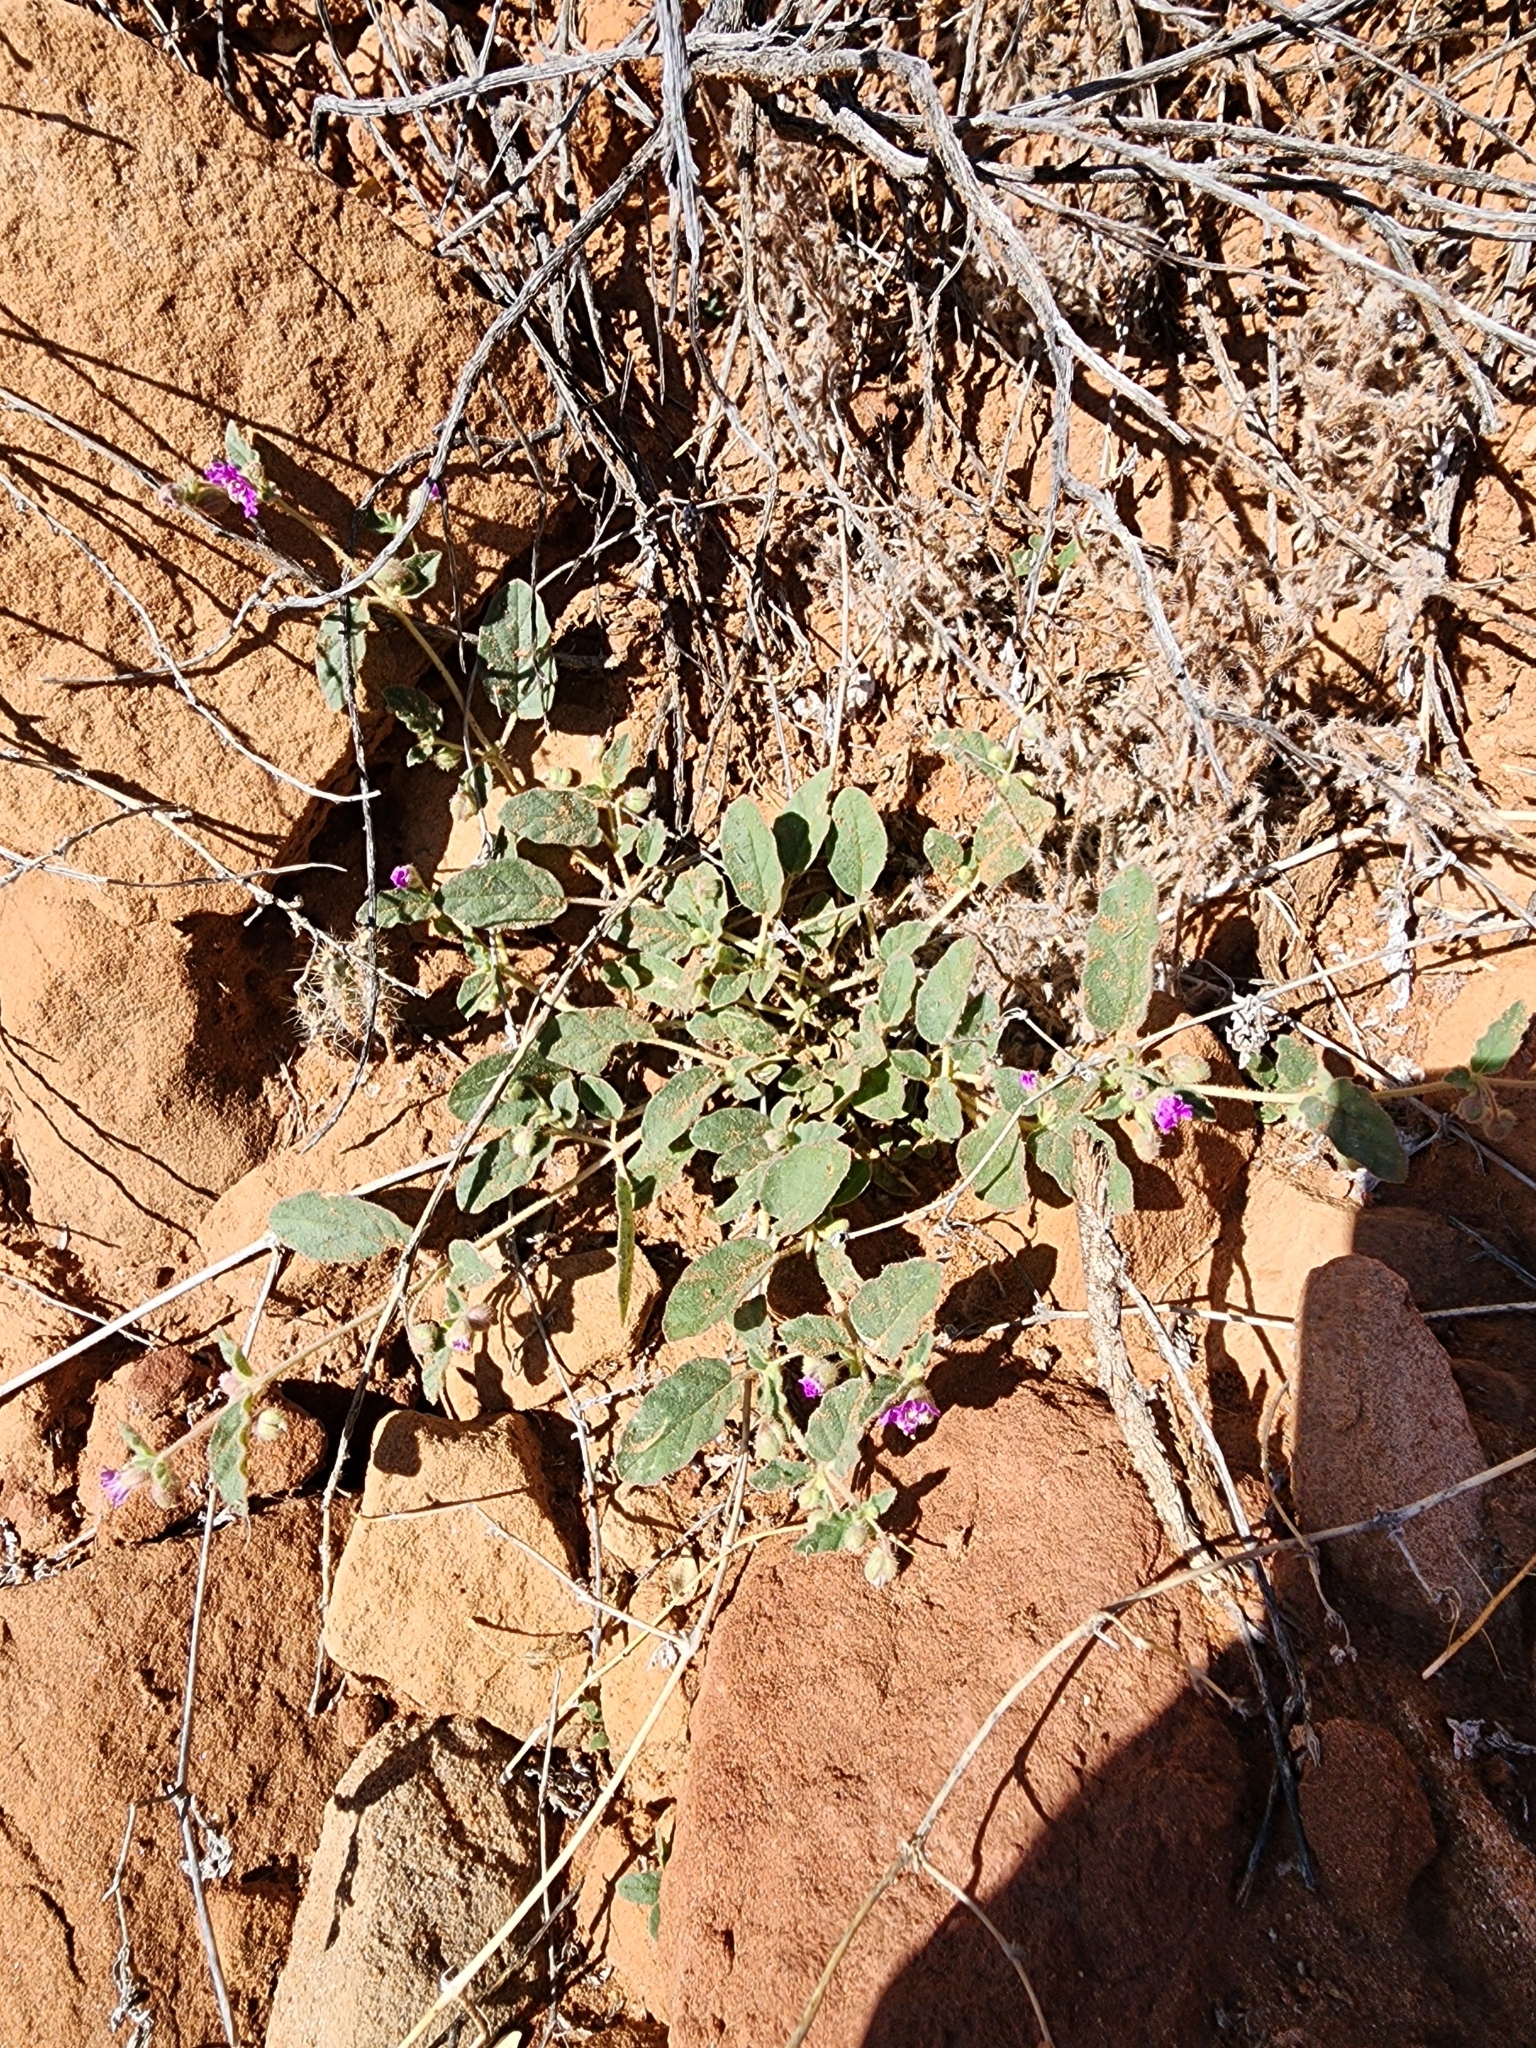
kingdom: Plantae
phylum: Tracheophyta
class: Magnoliopsida
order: Caryophyllales
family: Nyctaginaceae
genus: Allionia
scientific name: Allionia incarnata
